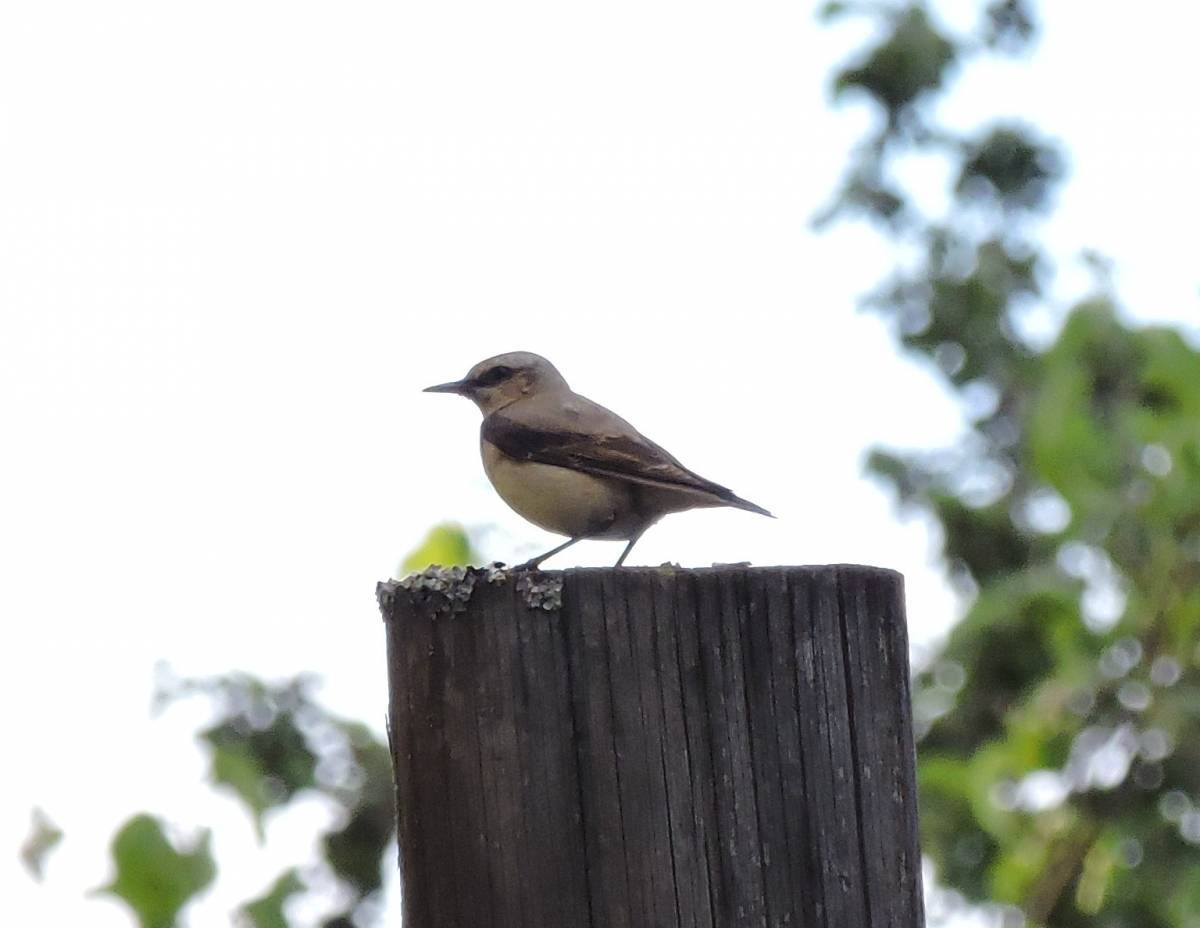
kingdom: Animalia
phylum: Chordata
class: Aves
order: Passeriformes
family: Muscicapidae
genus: Oenanthe
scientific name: Oenanthe oenanthe
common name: Northern wheatear
